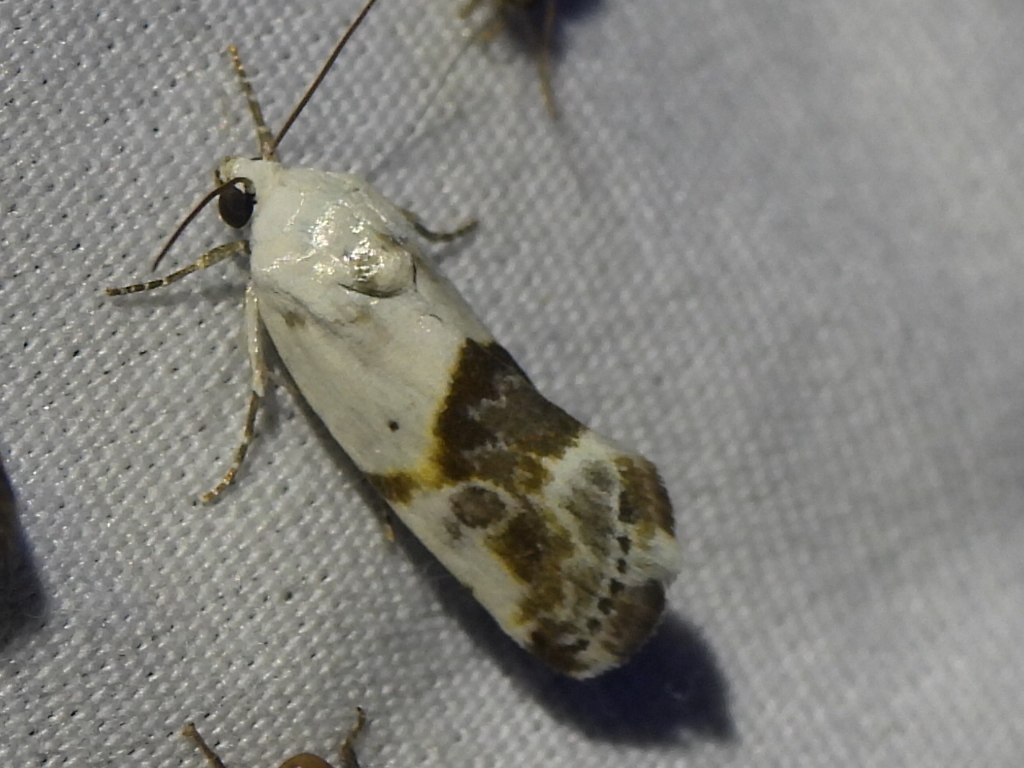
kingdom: Animalia
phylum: Arthropoda
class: Insecta
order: Lepidoptera
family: Noctuidae
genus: Acontia
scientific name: Acontia candefacta
